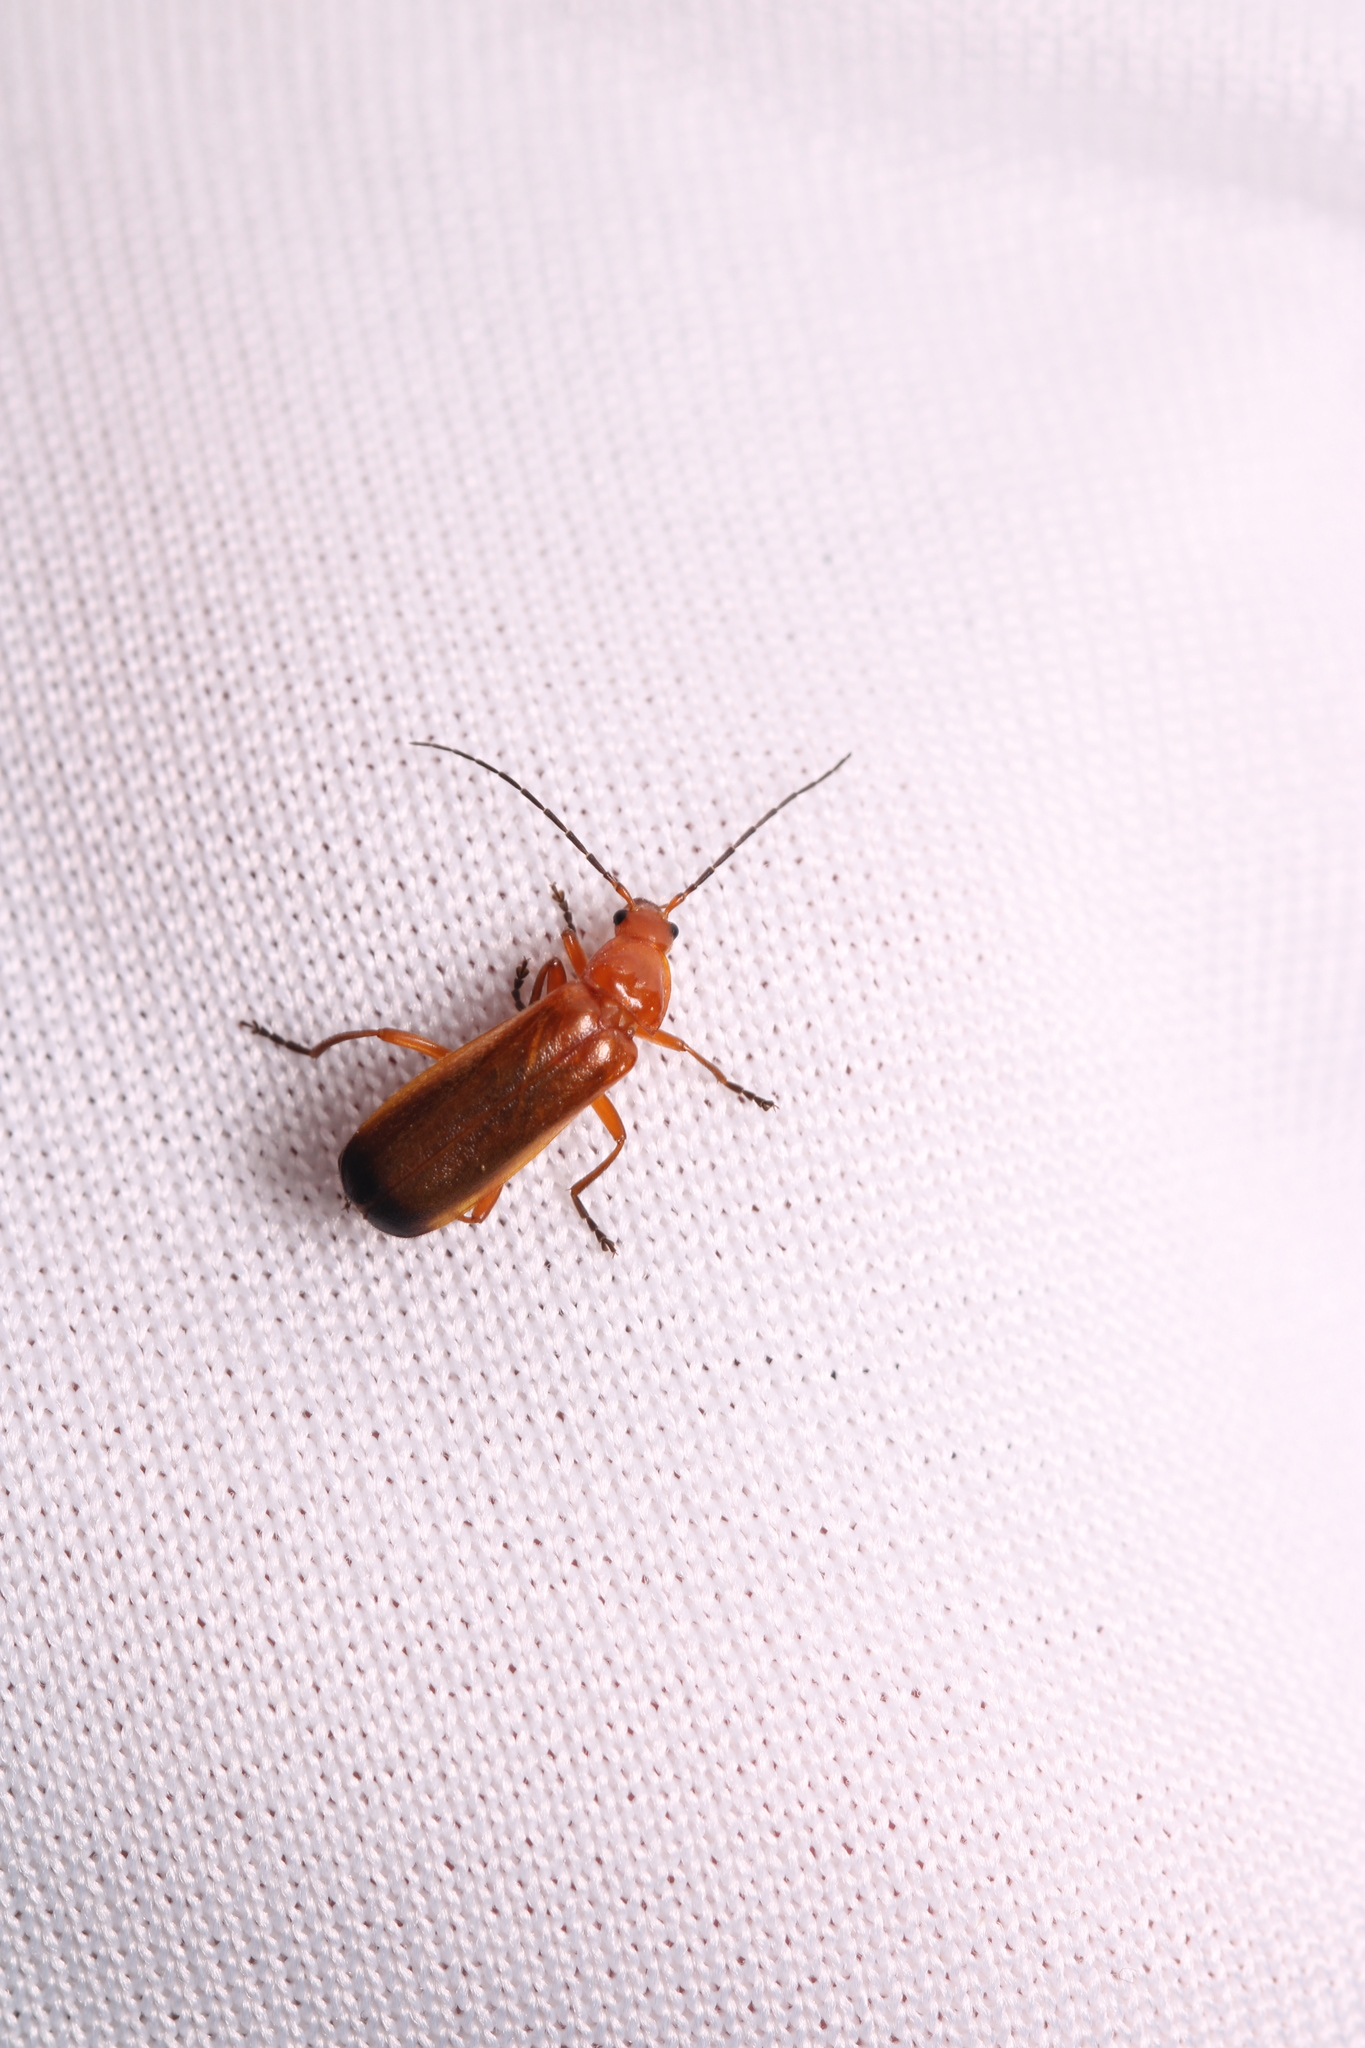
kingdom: Animalia
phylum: Arthropoda
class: Insecta
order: Coleoptera
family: Cantharidae
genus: Rhagonycha
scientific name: Rhagonycha fulva
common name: Common red soldier beetle
